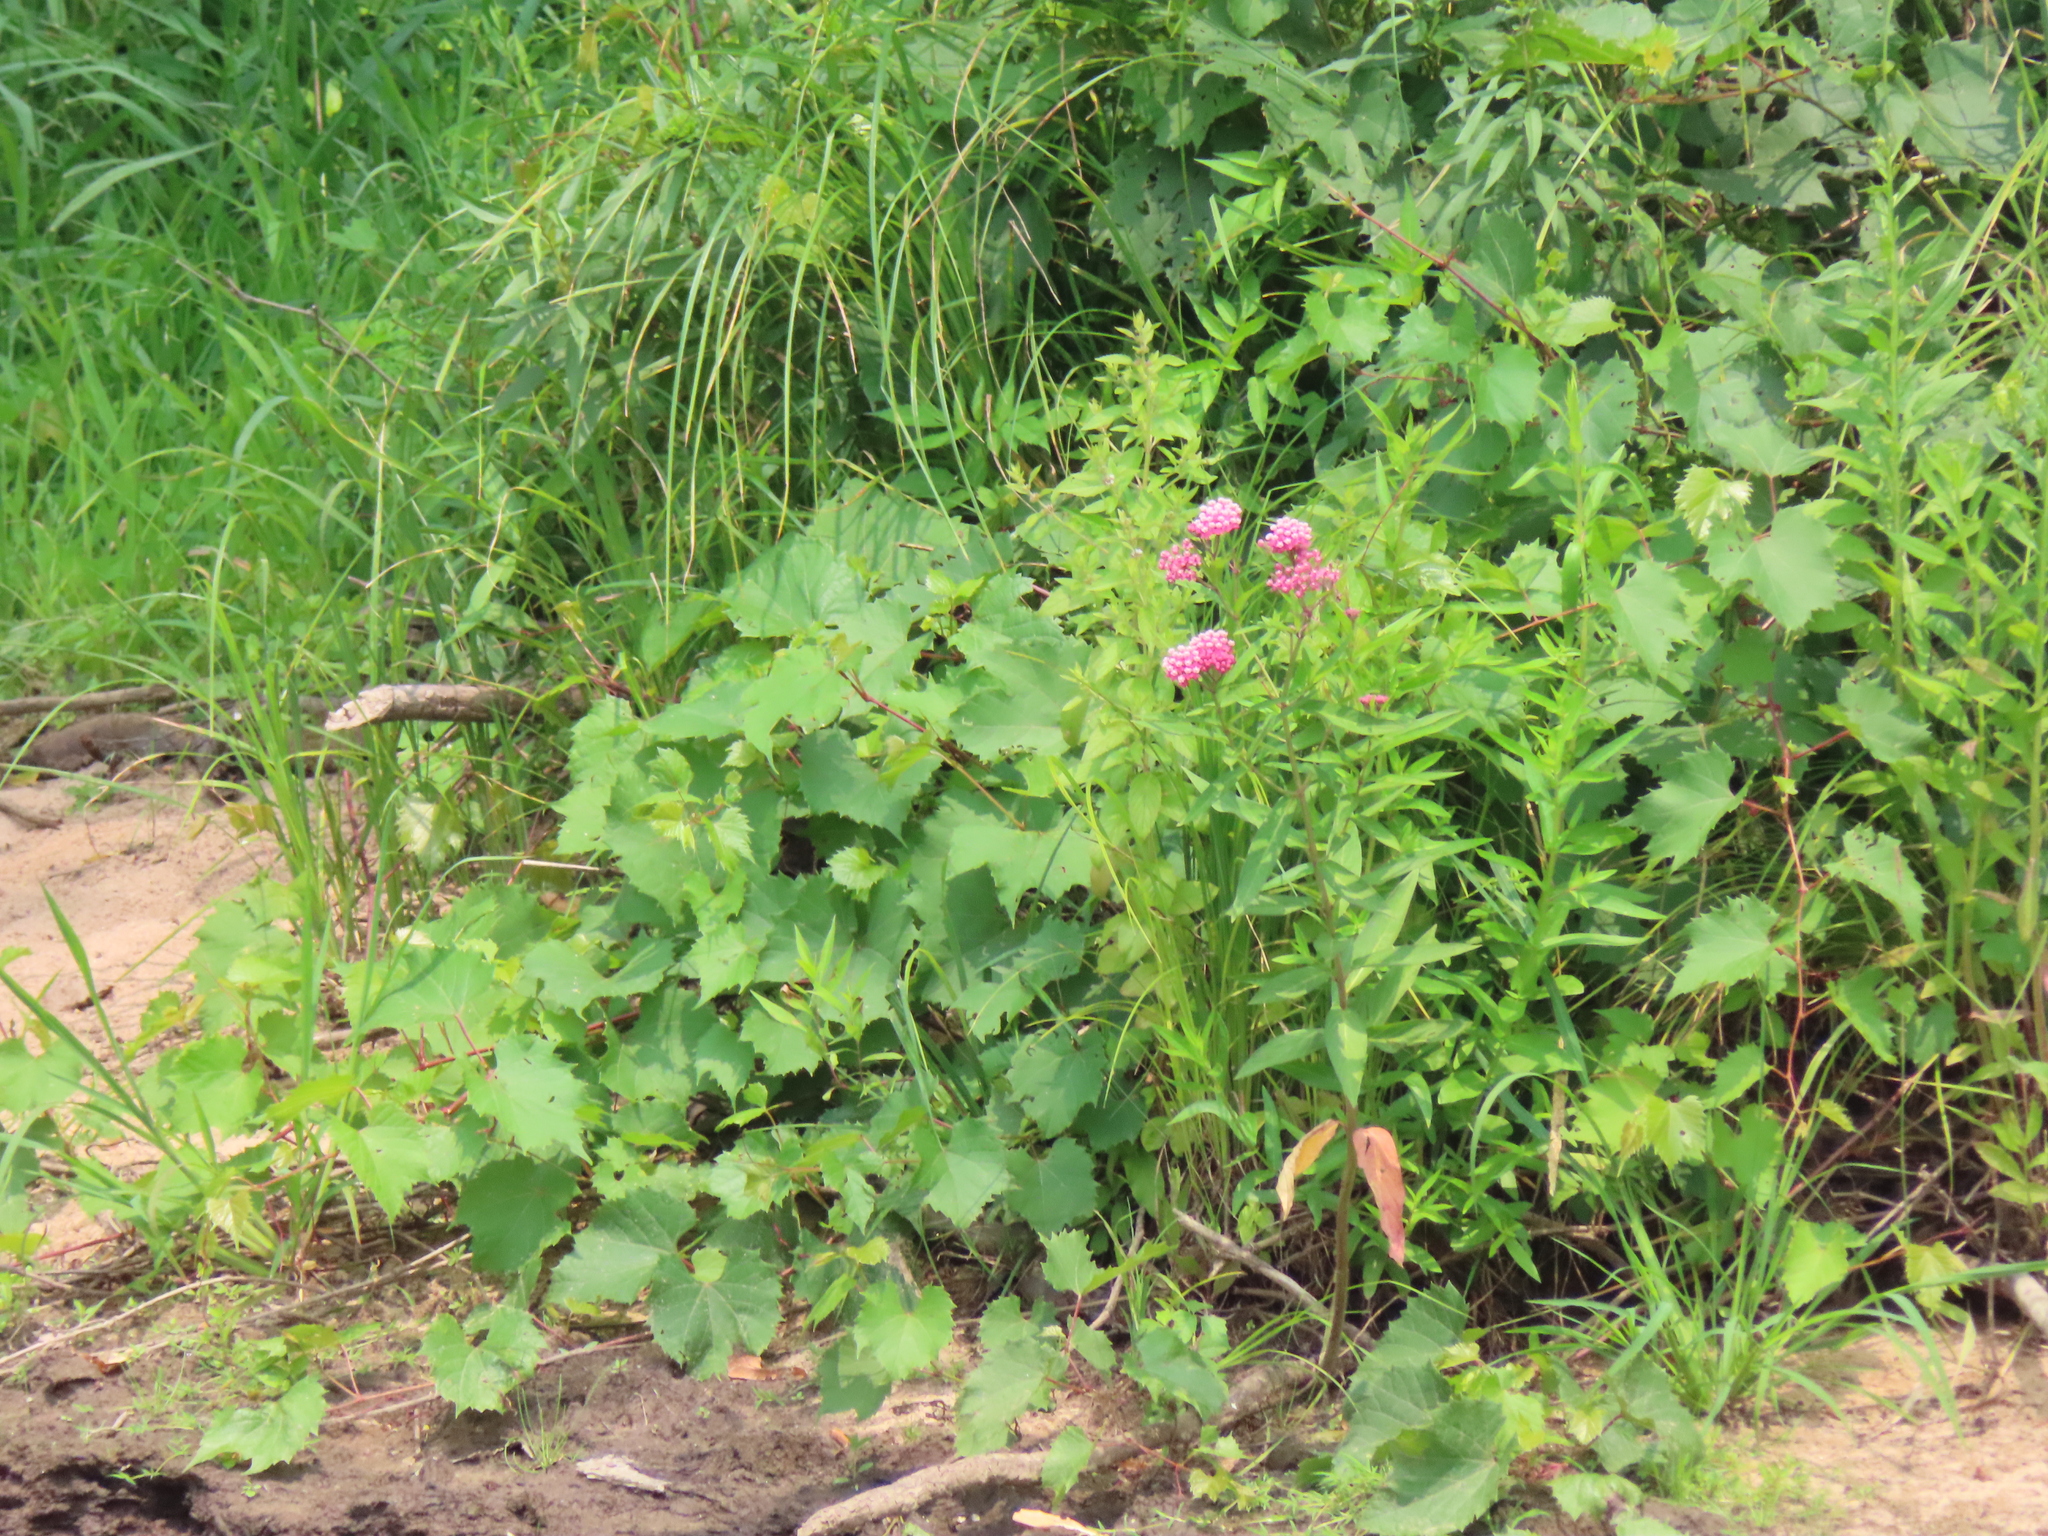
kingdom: Plantae
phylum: Tracheophyta
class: Magnoliopsida
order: Gentianales
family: Apocynaceae
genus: Asclepias
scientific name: Asclepias incarnata
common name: Swamp milkweed
